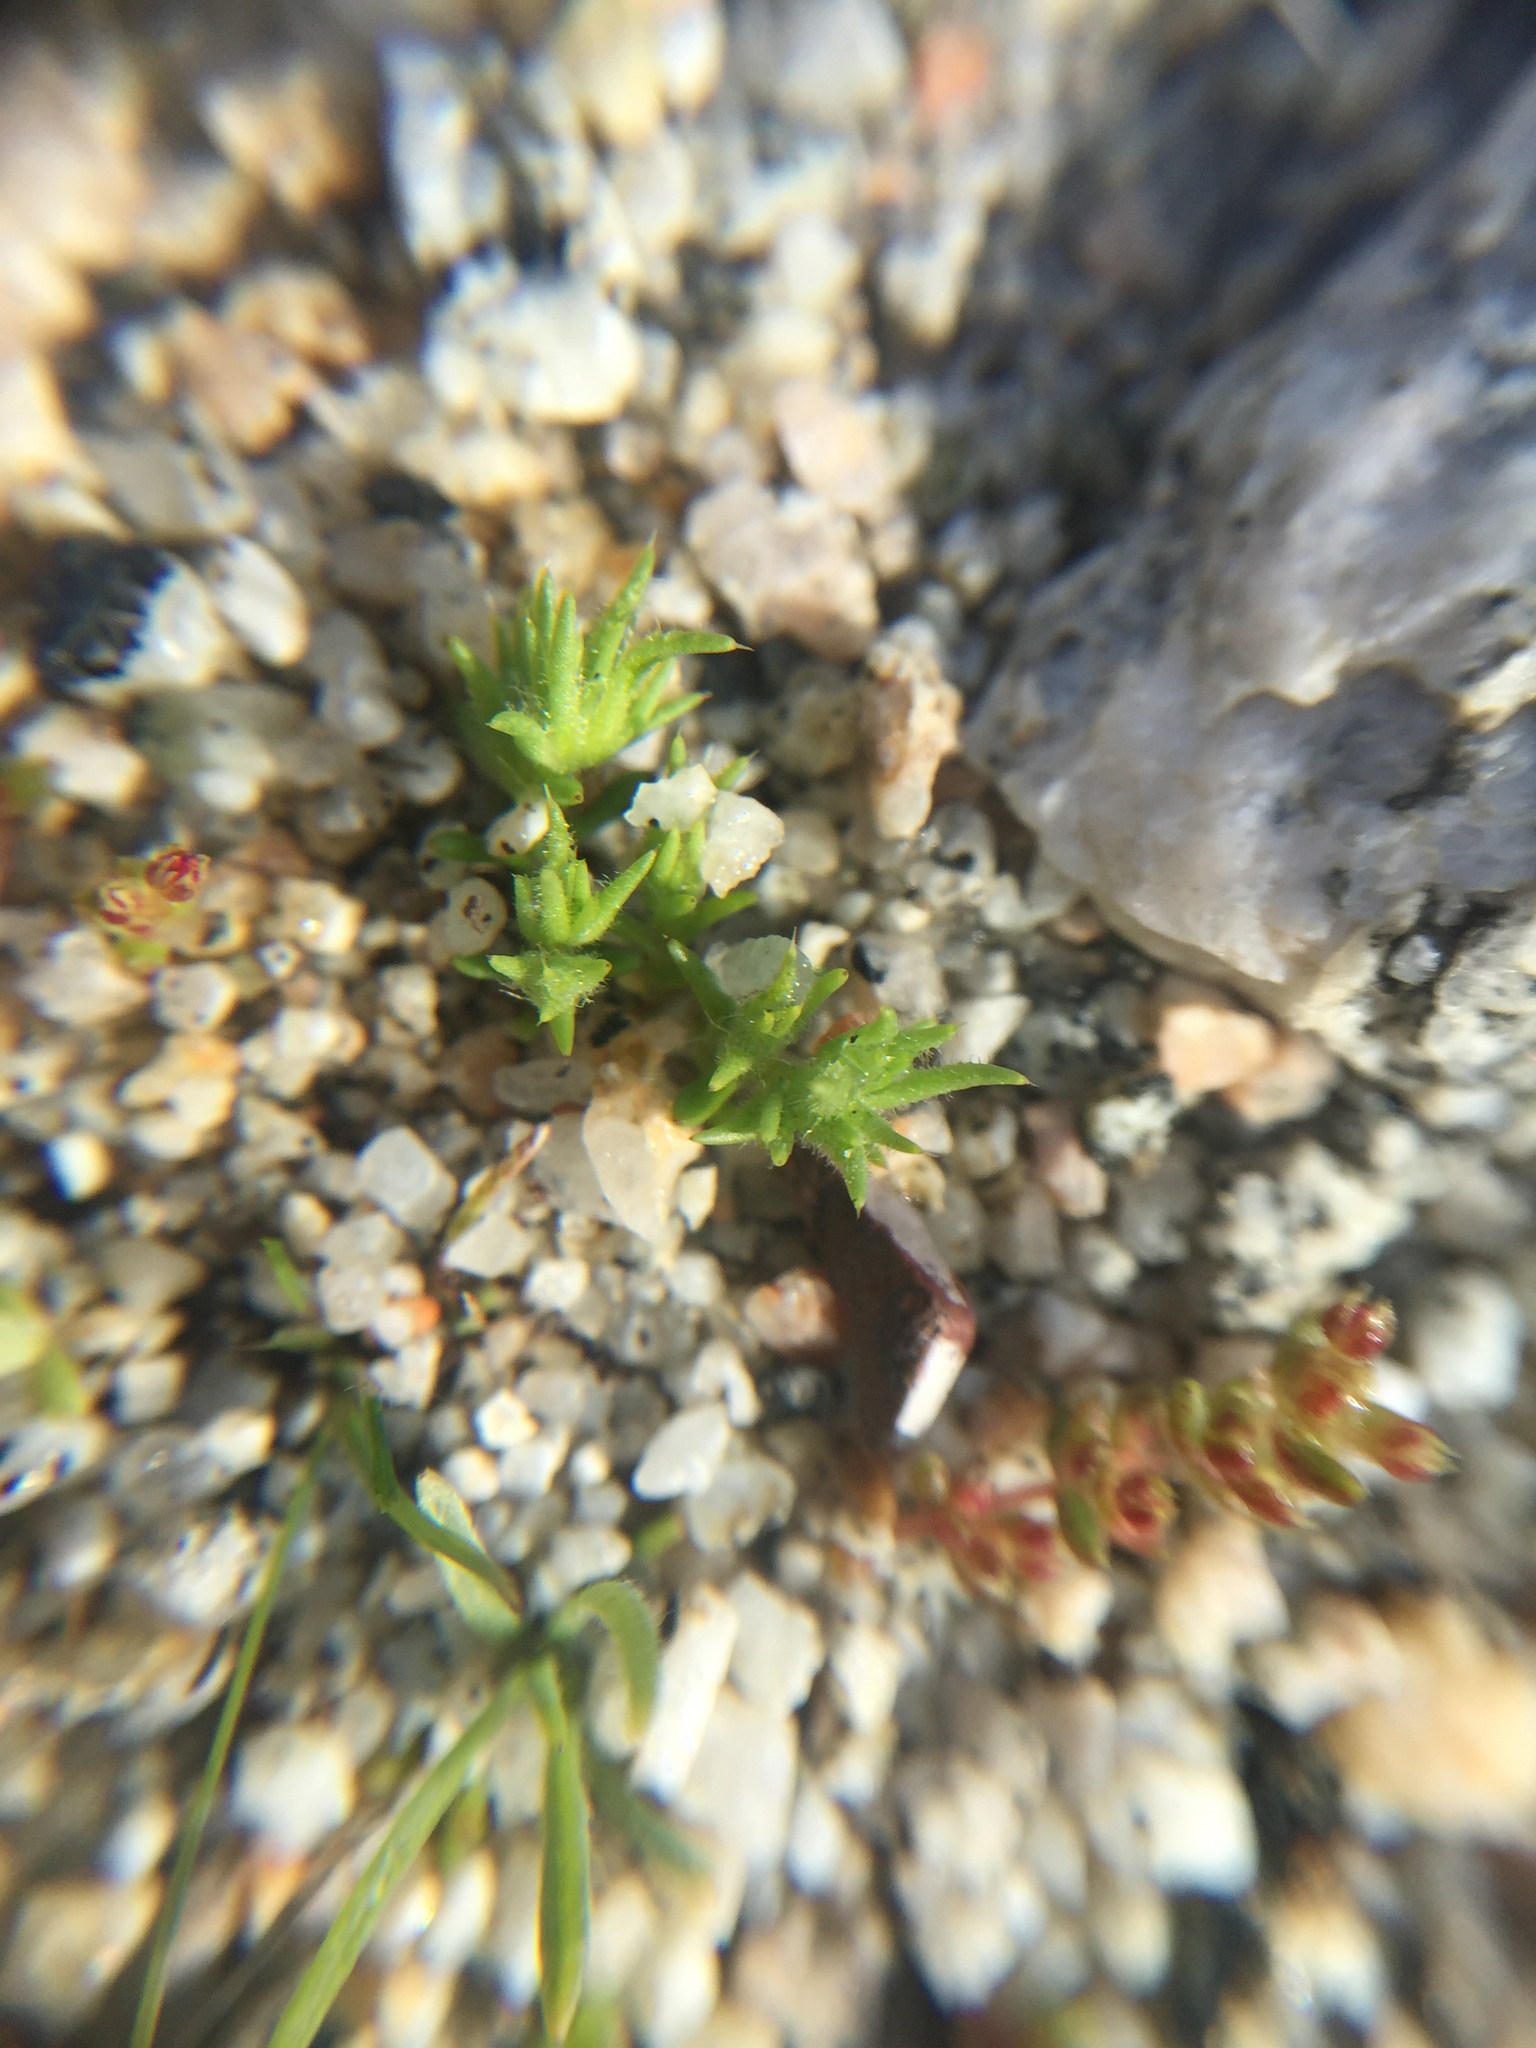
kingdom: Plantae
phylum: Tracheophyta
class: Magnoliopsida
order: Caryophyllales
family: Caryophyllaceae
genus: Loeflingia
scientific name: Loeflingia squarrosa
